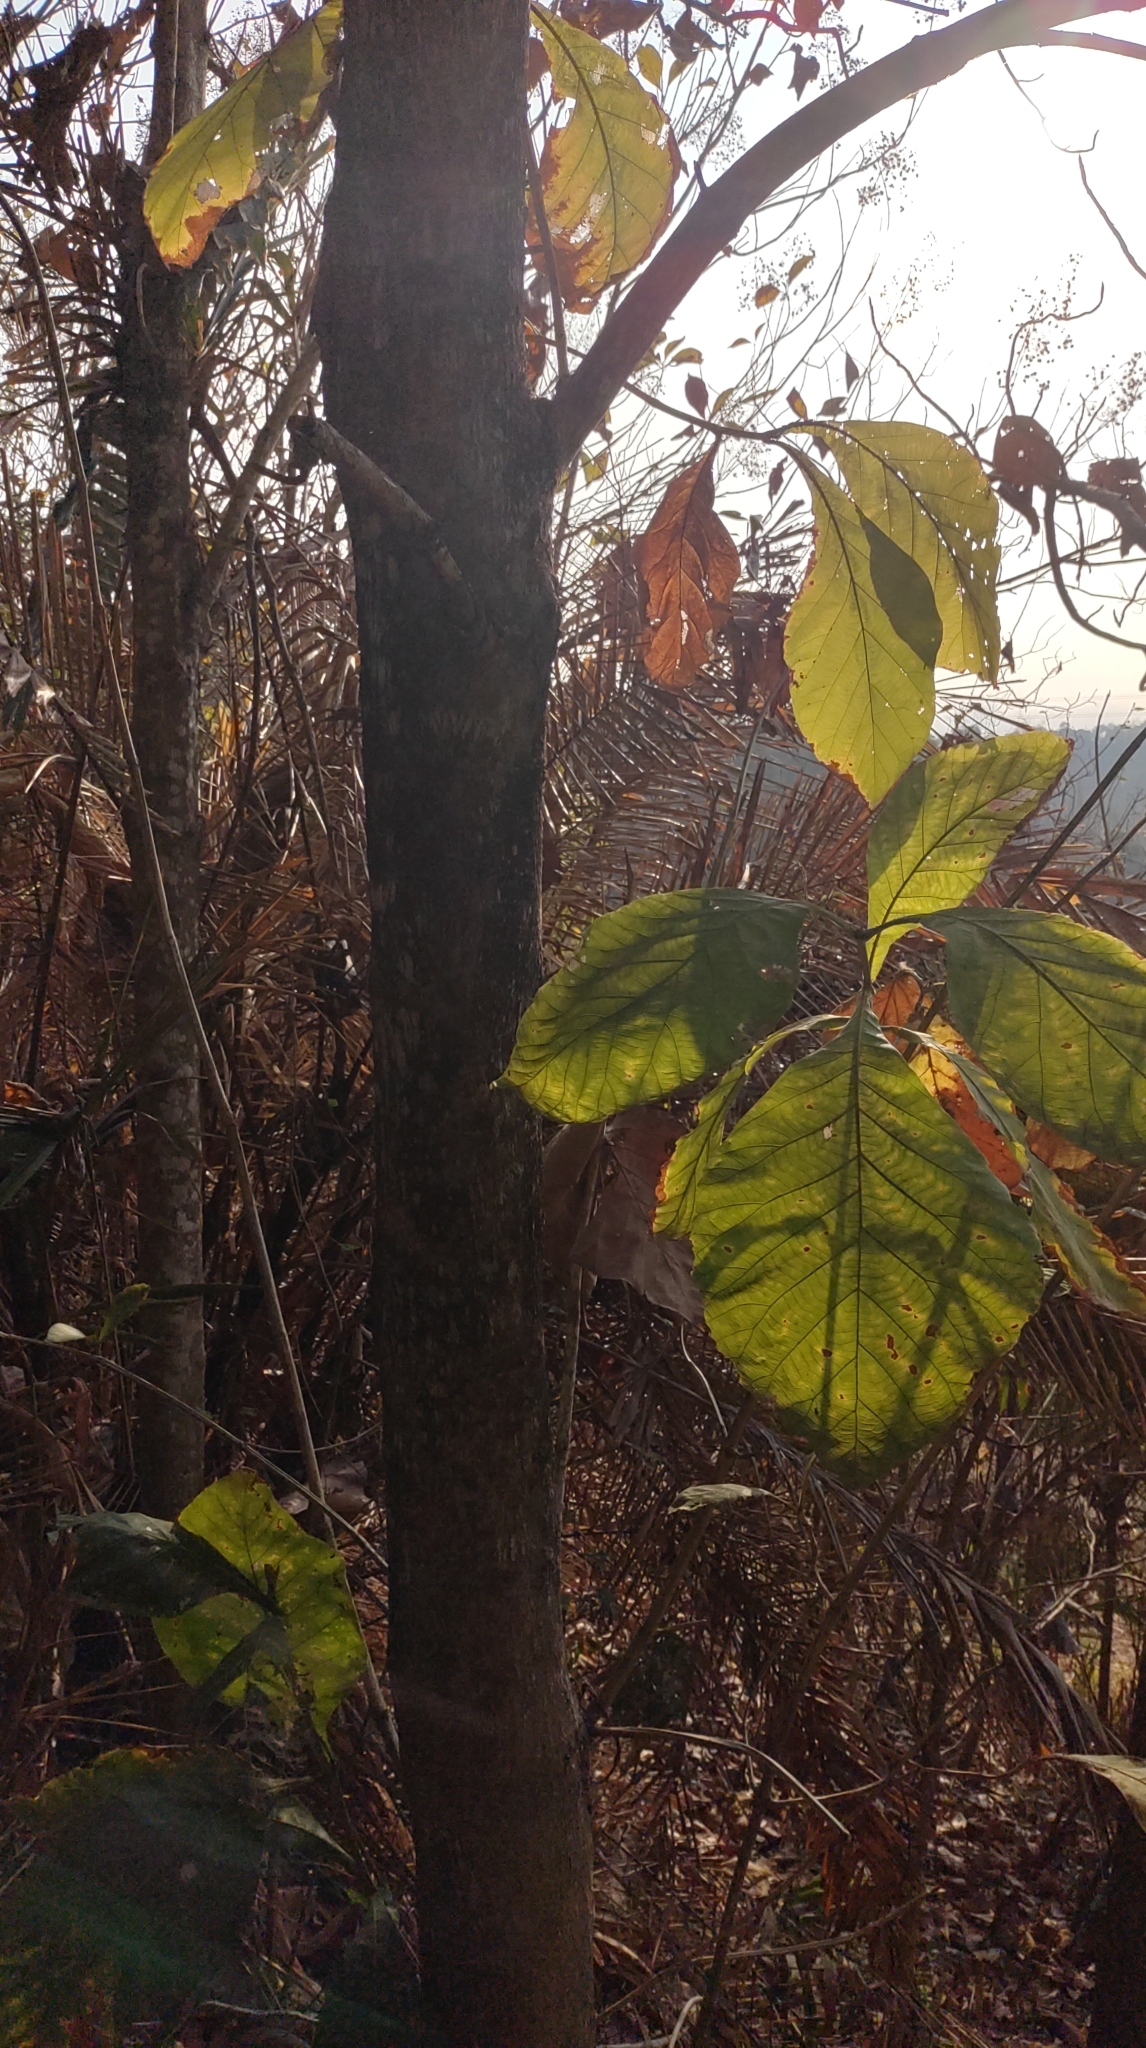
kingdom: Plantae
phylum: Tracheophyta
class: Magnoliopsida
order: Lamiales
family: Lamiaceae
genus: Tectona
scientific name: Tectona grandis
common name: Teak
